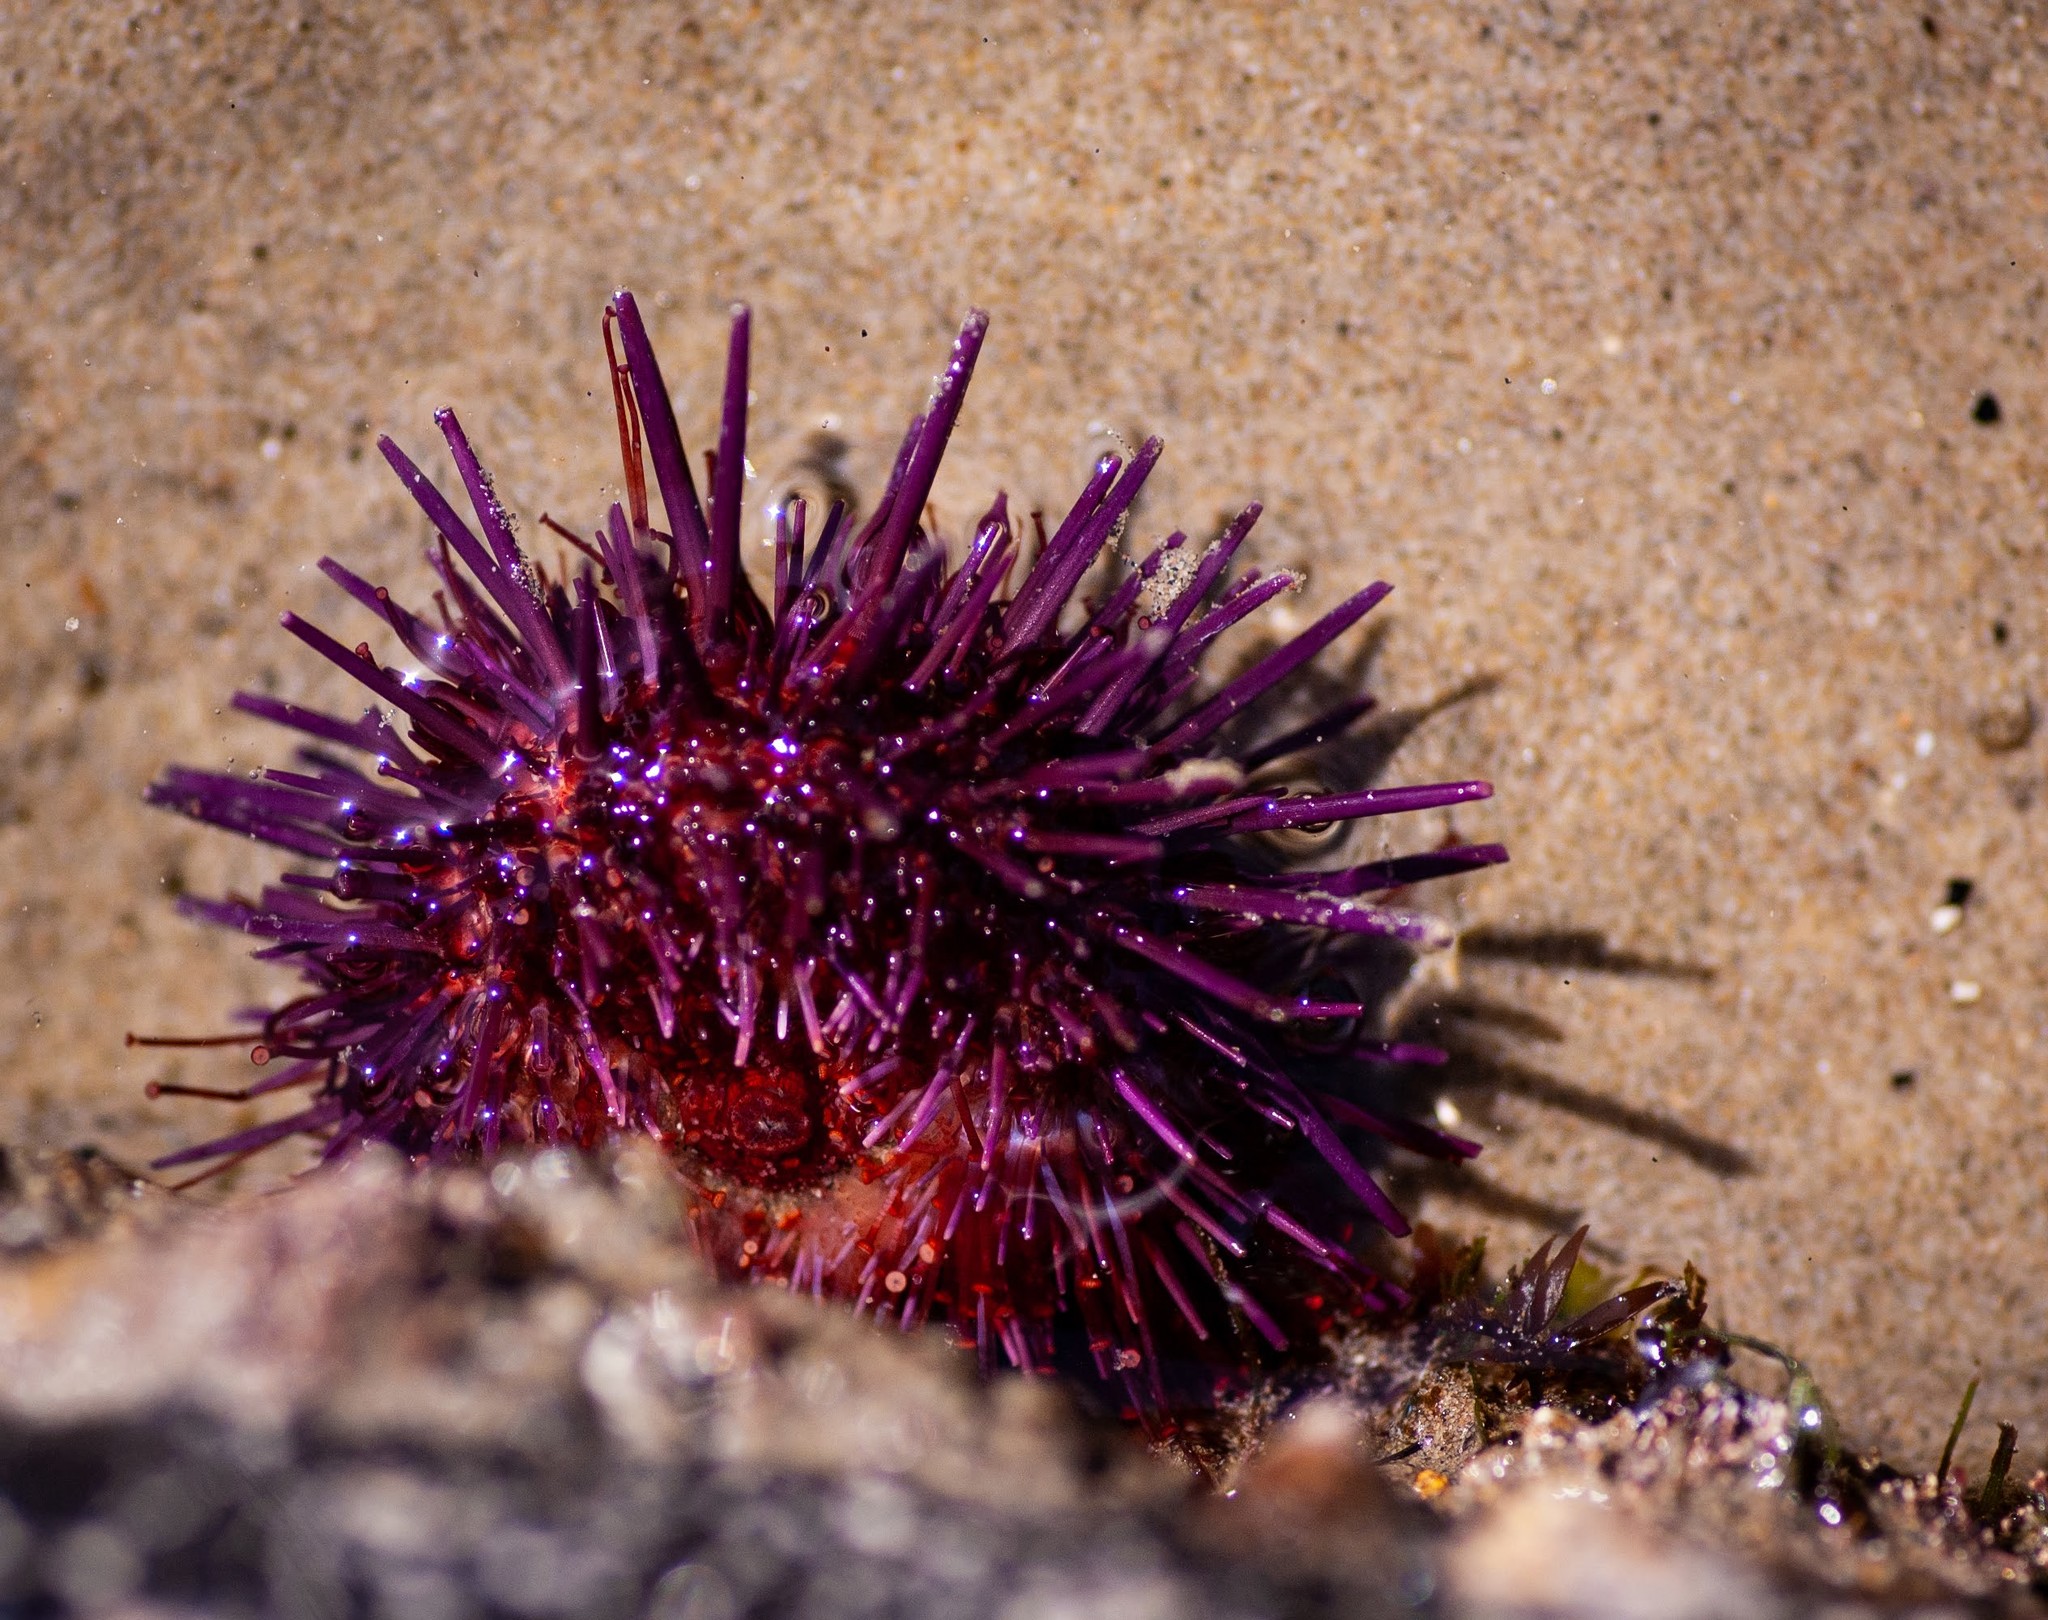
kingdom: Animalia
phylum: Echinodermata
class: Echinoidea
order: Camarodonta
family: Strongylocentrotidae
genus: Strongylocentrotus
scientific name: Strongylocentrotus purpuratus
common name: Purple sea urchin
